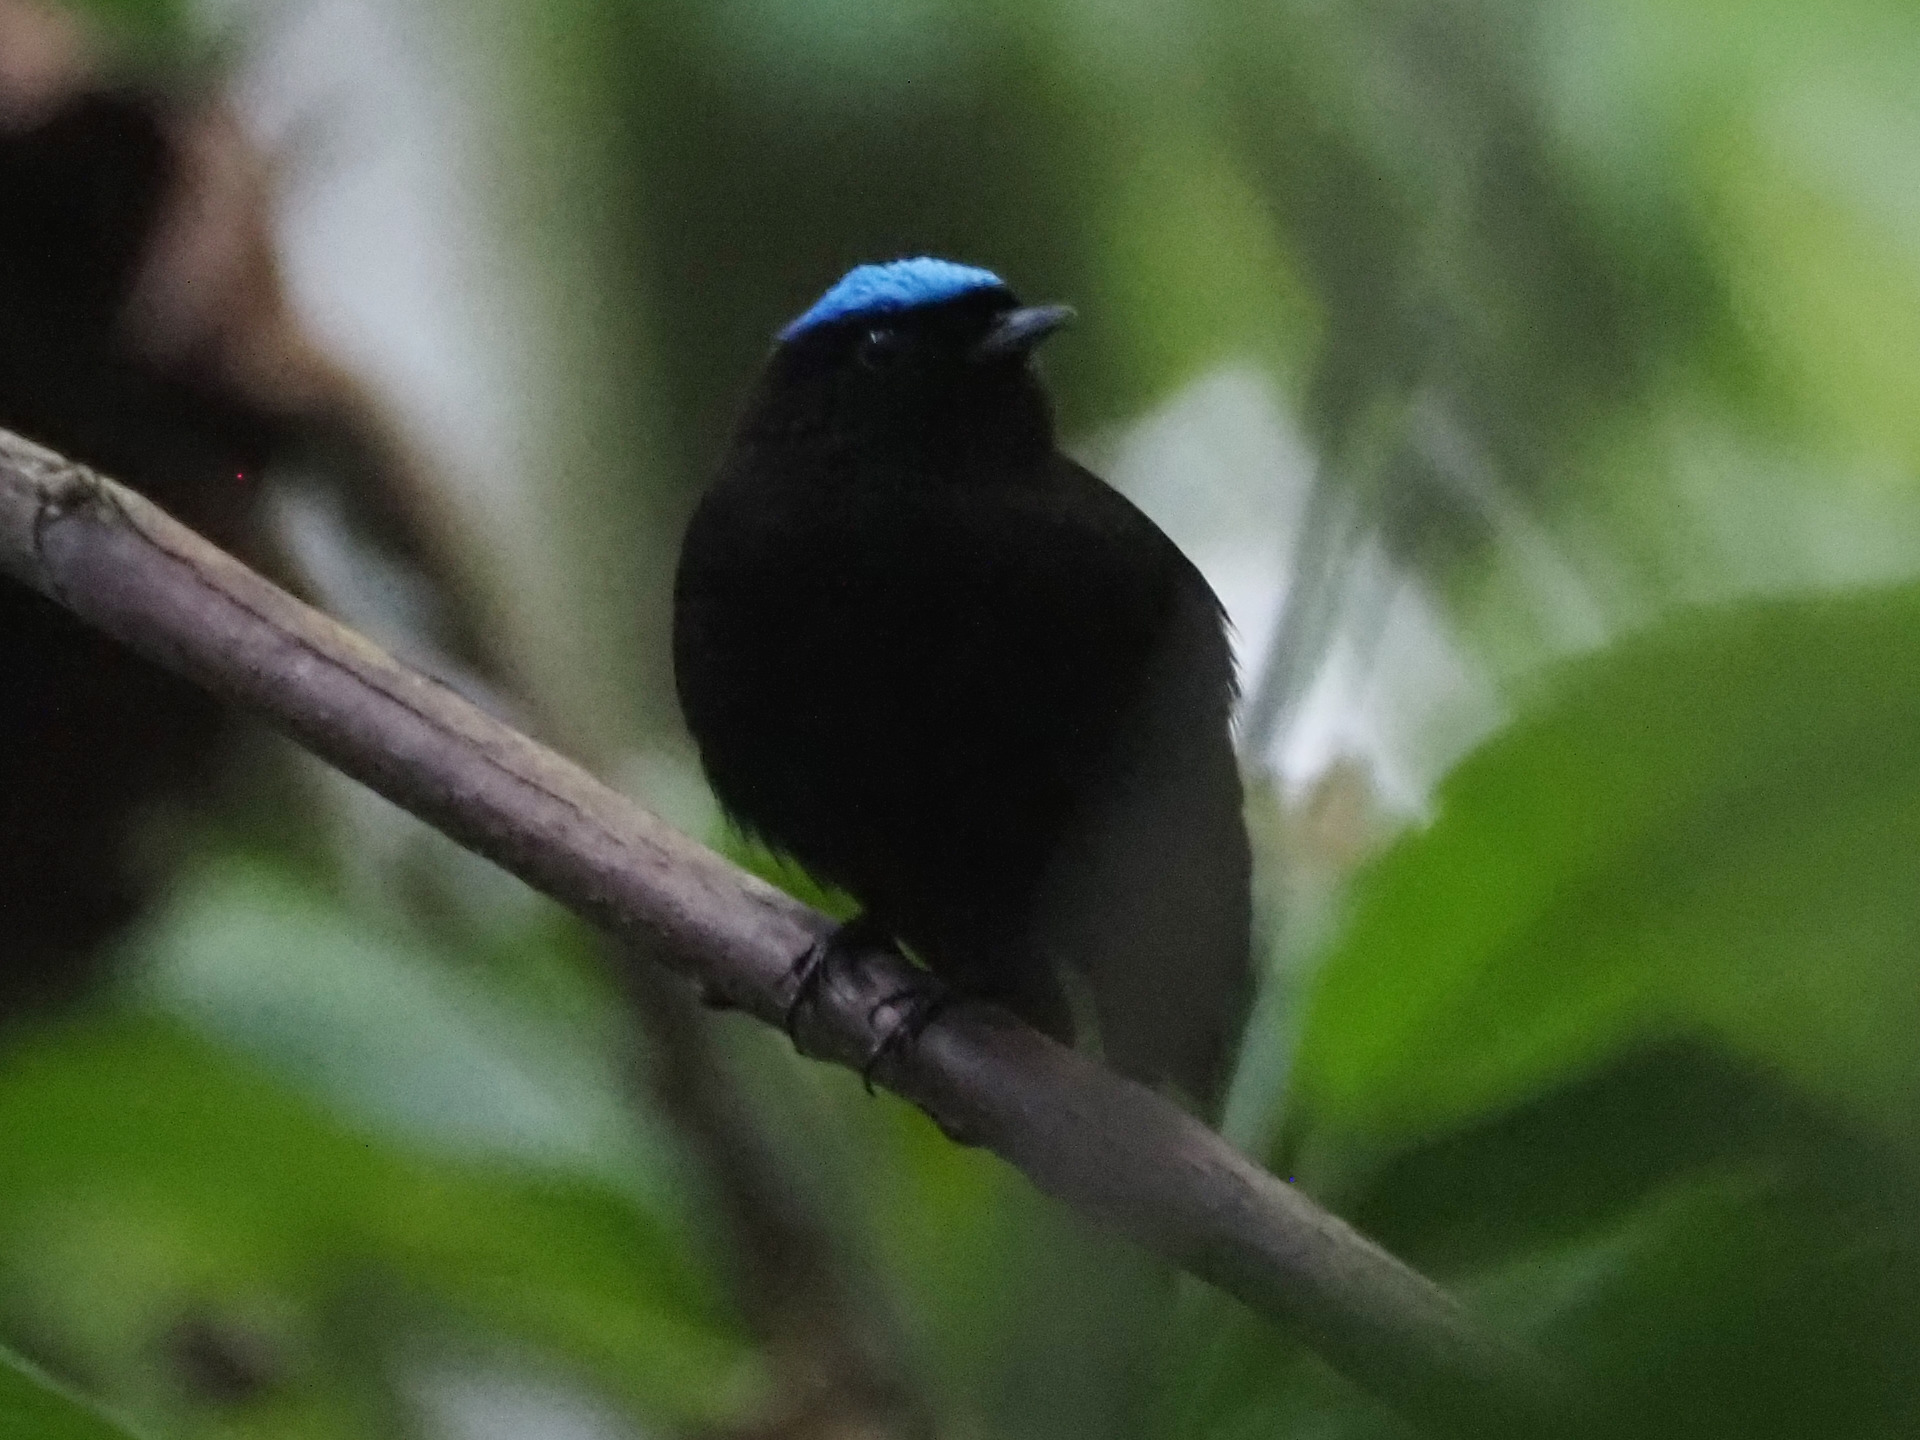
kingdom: Animalia
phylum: Chordata
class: Aves
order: Passeriformes
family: Pipridae
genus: Lepidothrix
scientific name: Lepidothrix coronata
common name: Blue-crowned manakin
